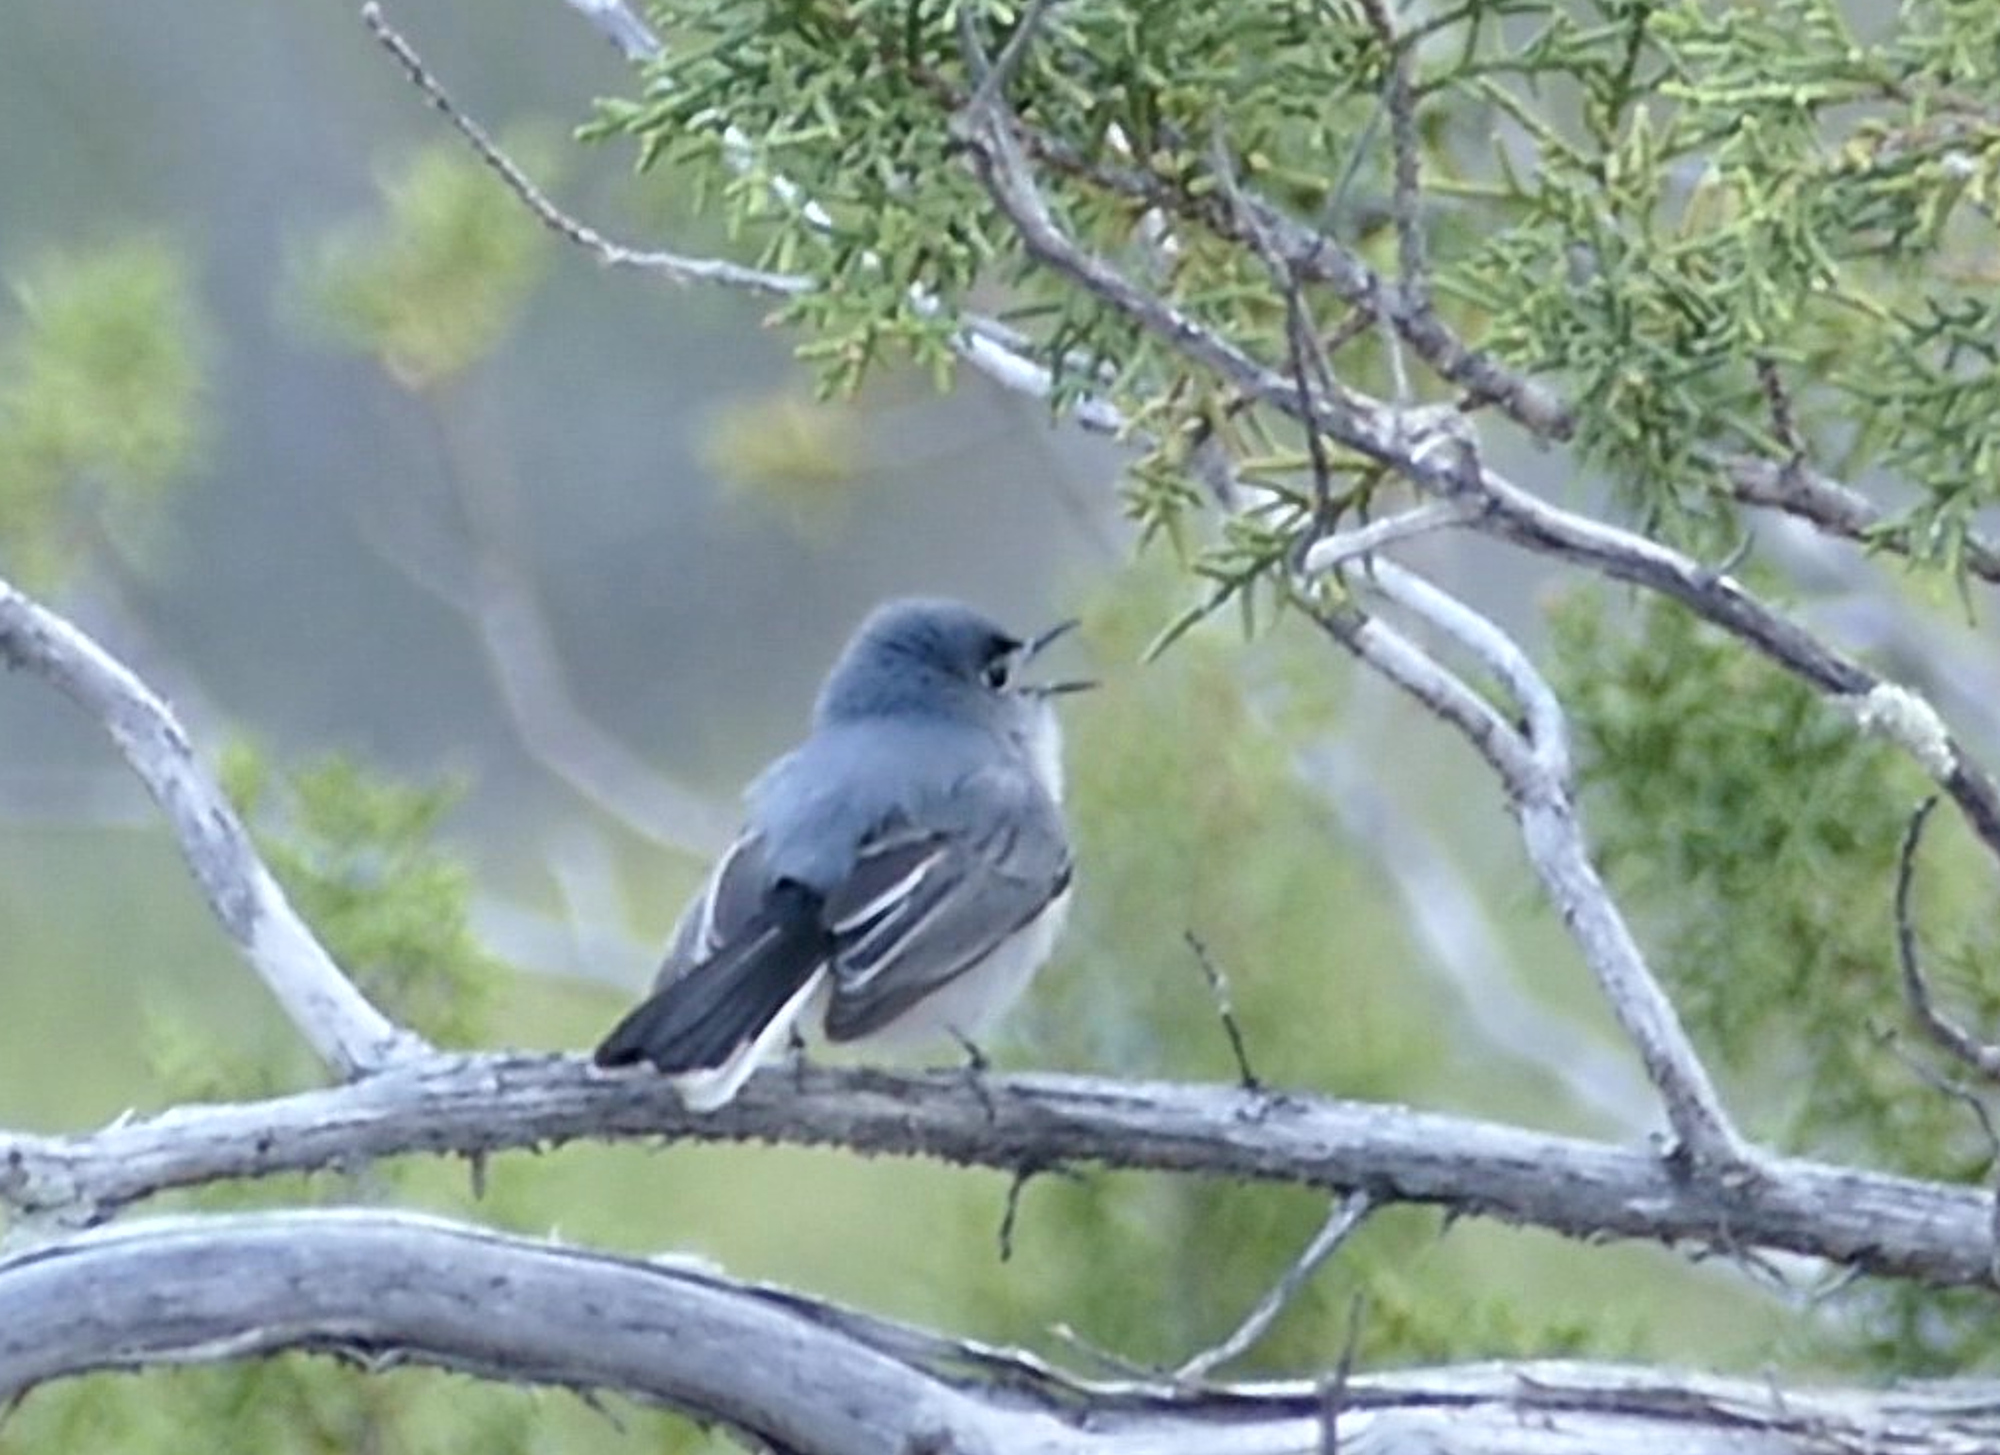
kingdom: Animalia
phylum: Chordata
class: Aves
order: Passeriformes
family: Polioptilidae
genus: Polioptila
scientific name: Polioptila caerulea
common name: Blue-gray gnatcatcher
